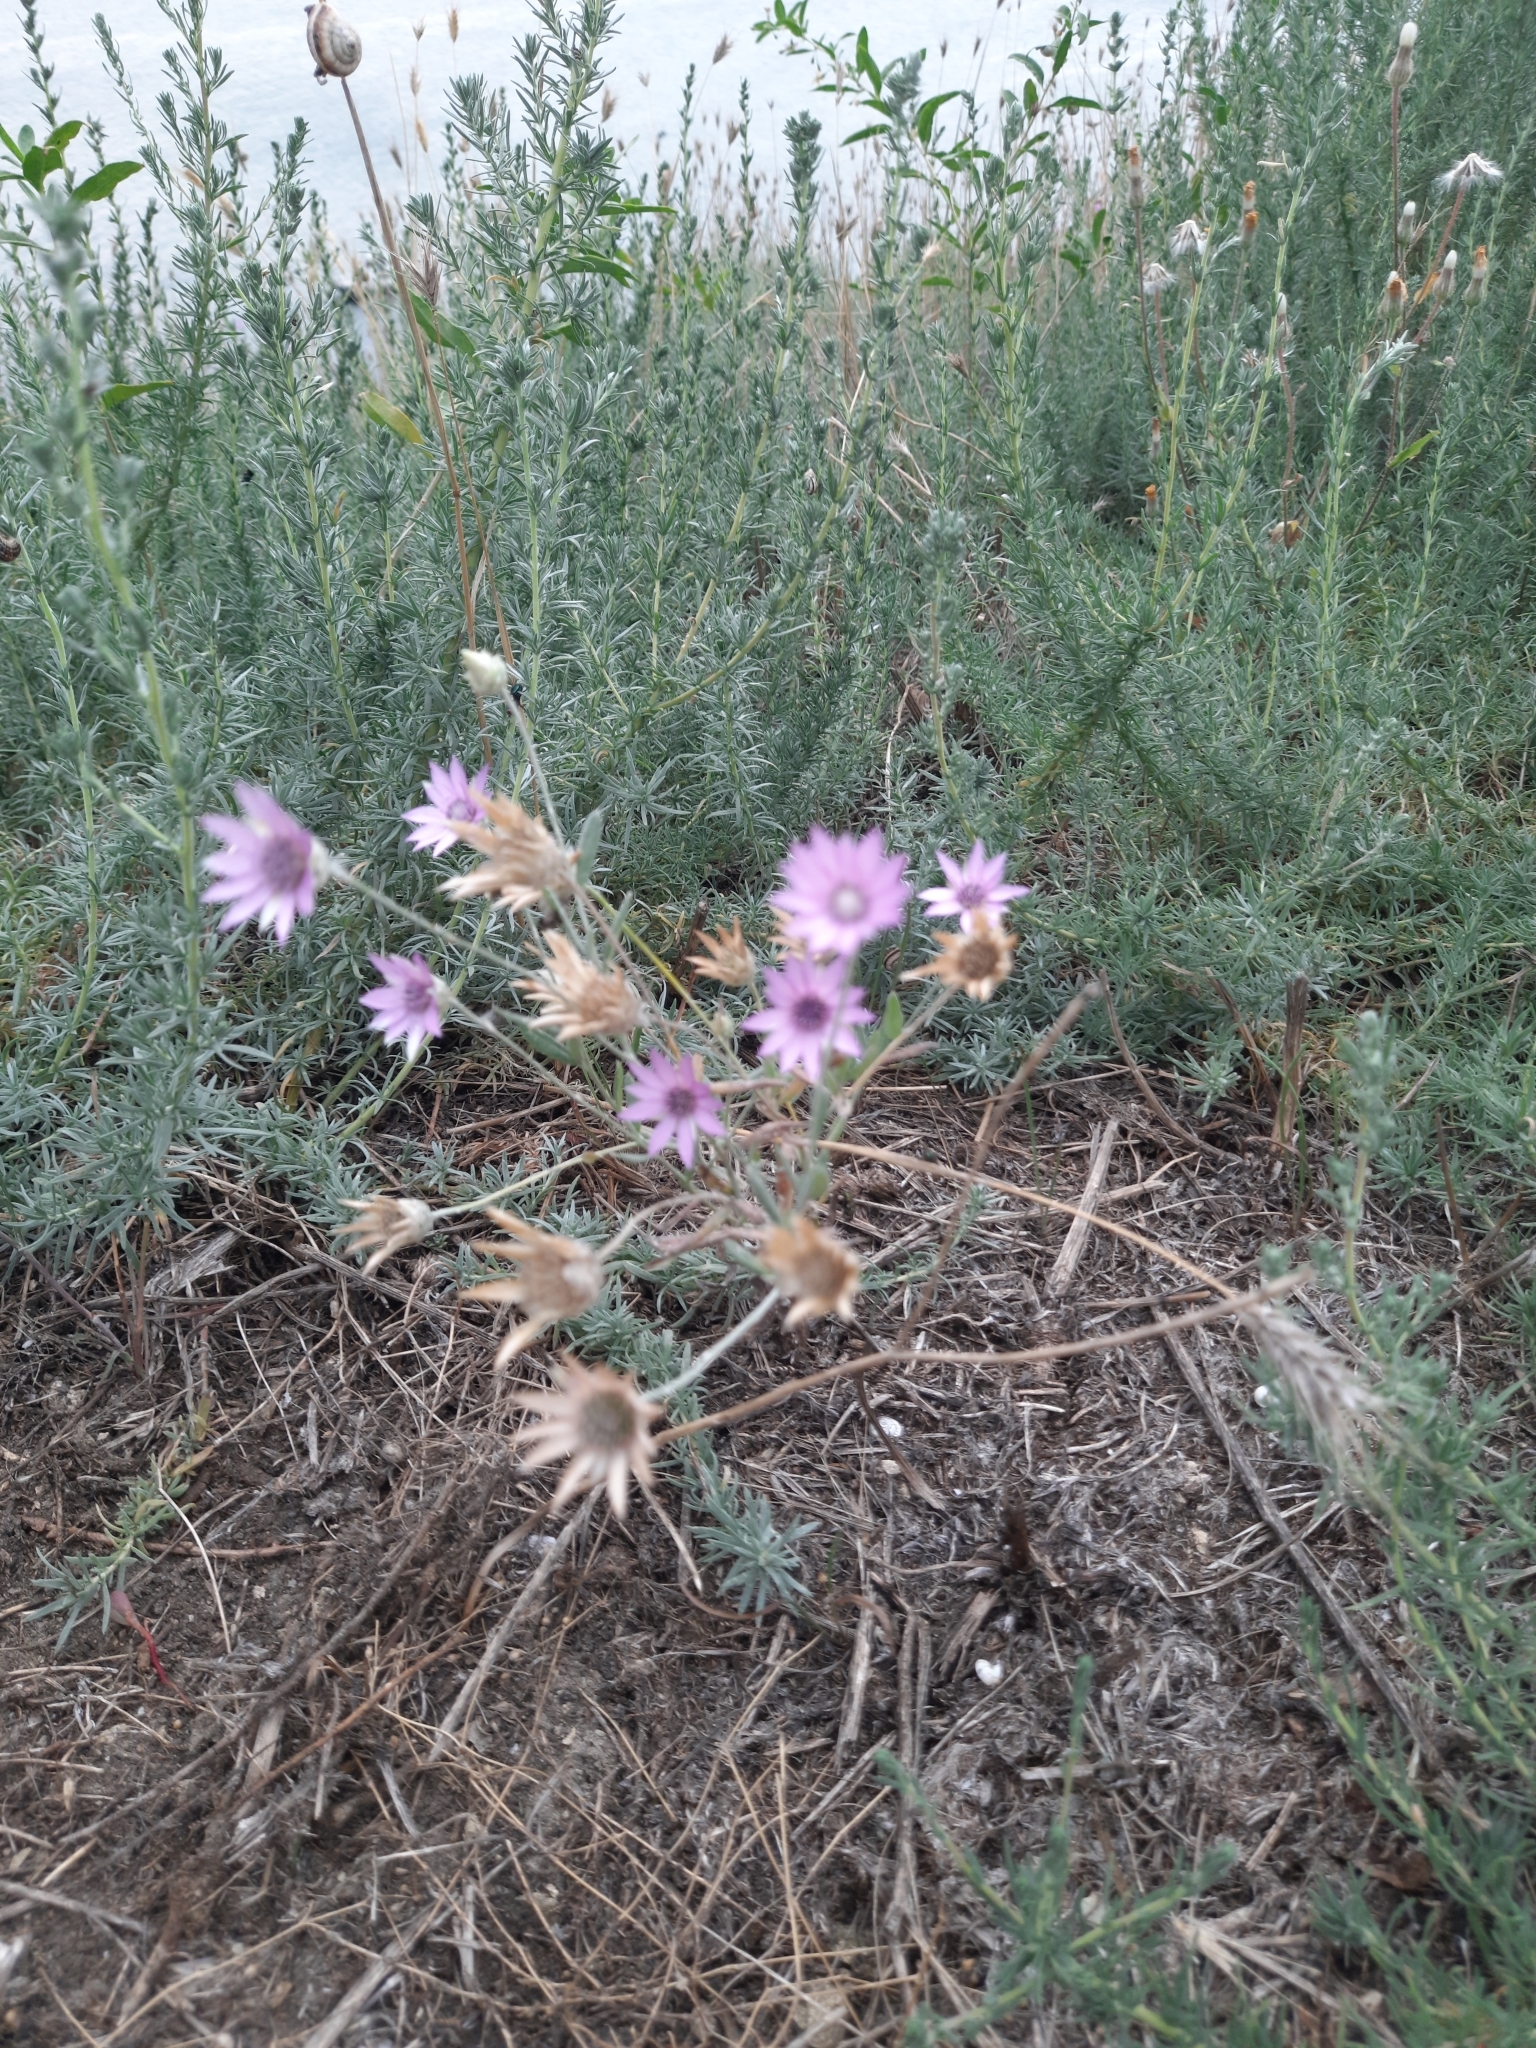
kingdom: Plantae
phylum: Tracheophyta
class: Magnoliopsida
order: Asterales
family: Asteraceae
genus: Xeranthemum
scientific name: Xeranthemum annuum
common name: Immortelle
